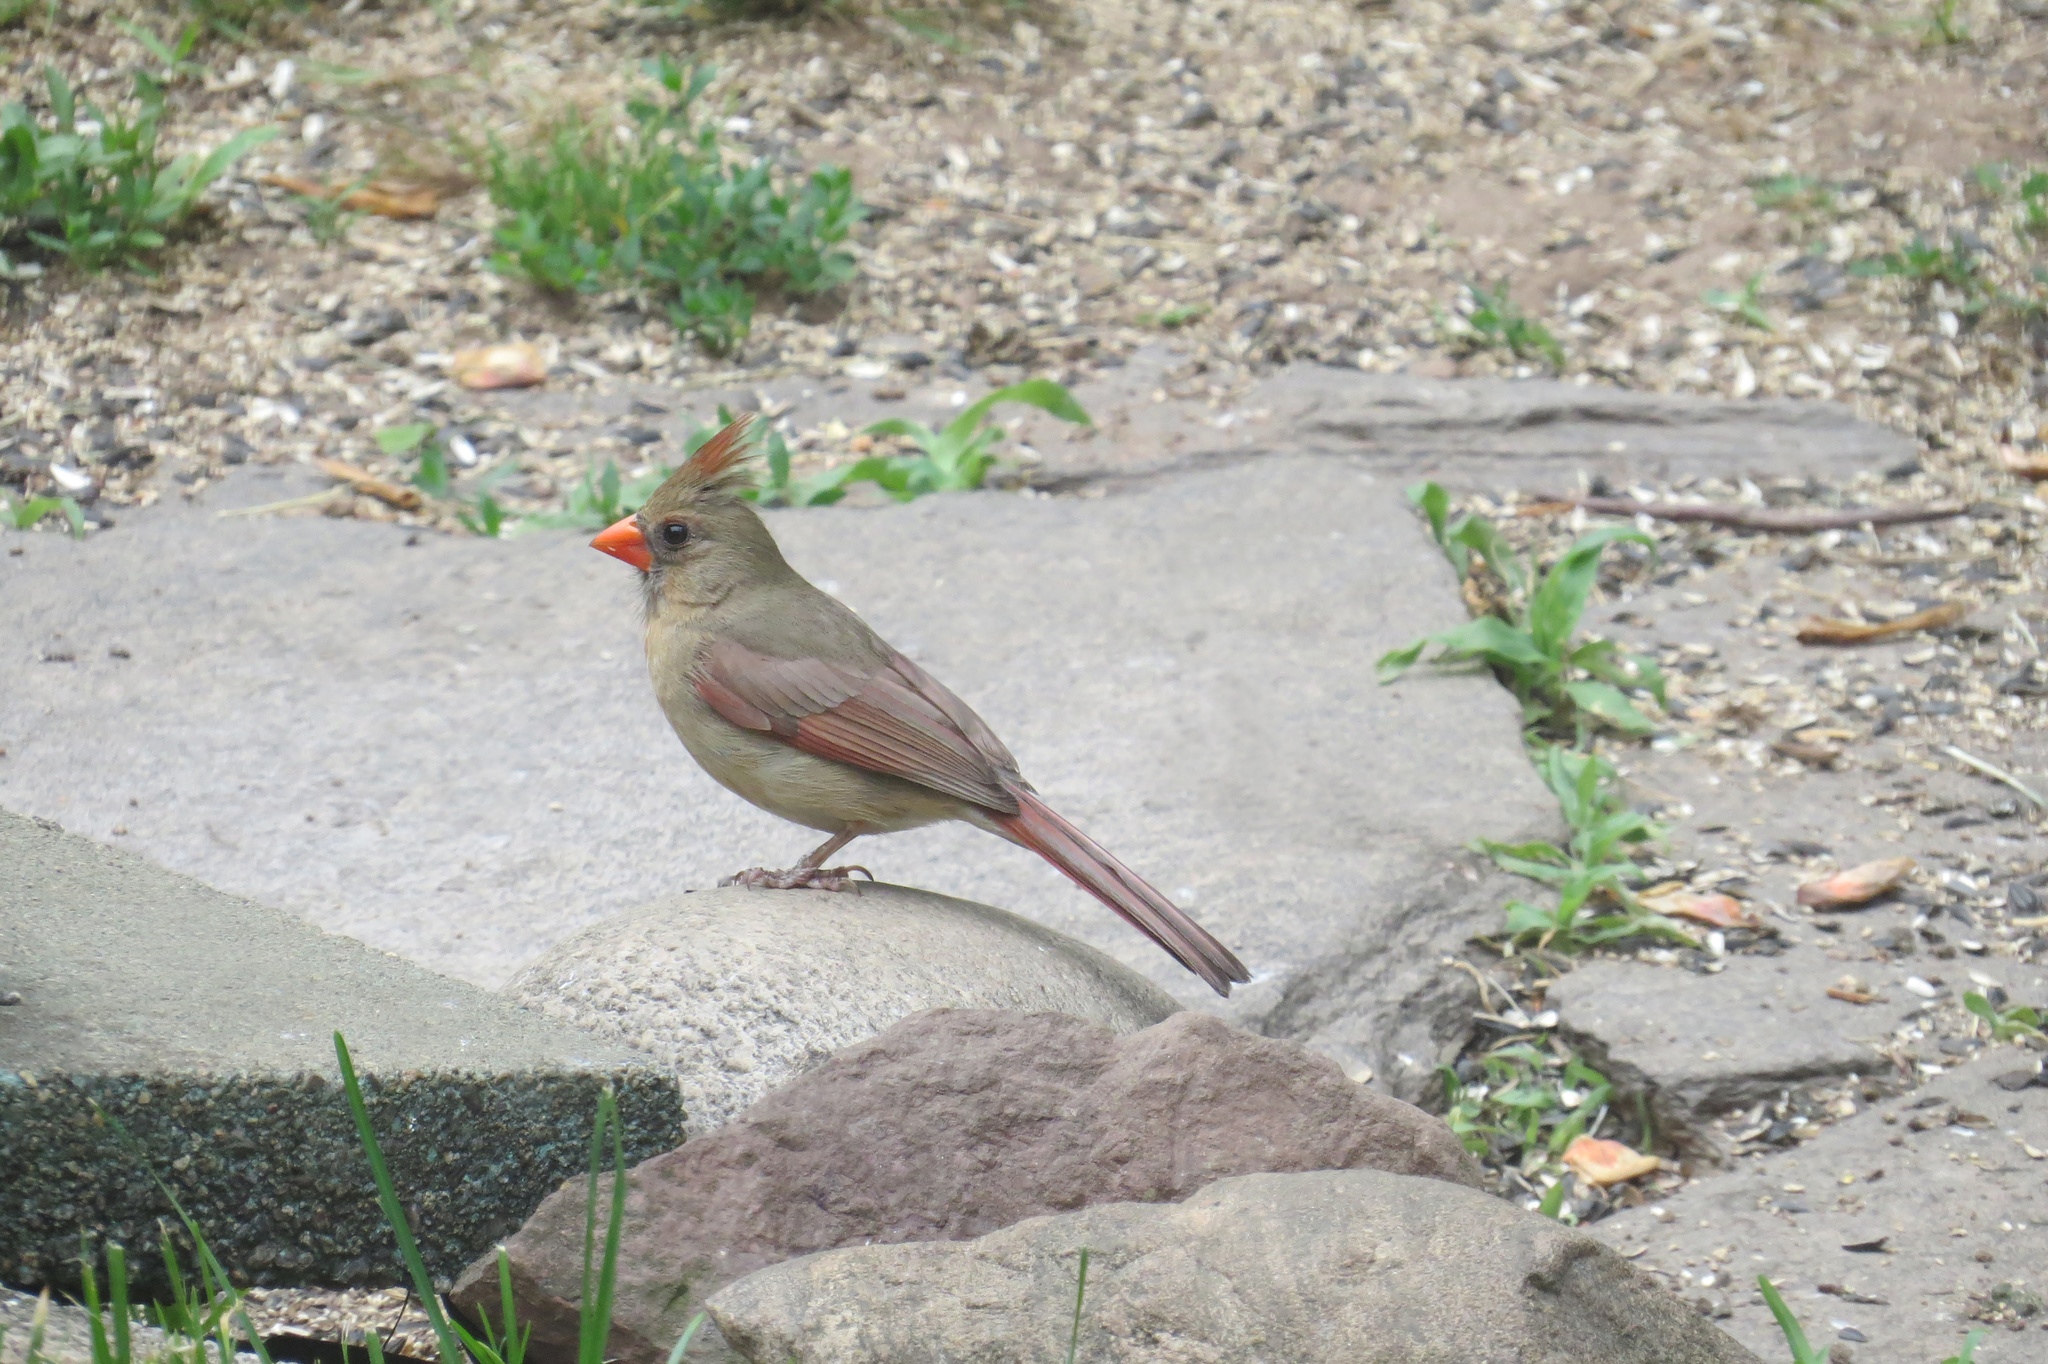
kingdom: Animalia
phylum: Chordata
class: Aves
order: Passeriformes
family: Cardinalidae
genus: Cardinalis
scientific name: Cardinalis cardinalis
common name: Northern cardinal
